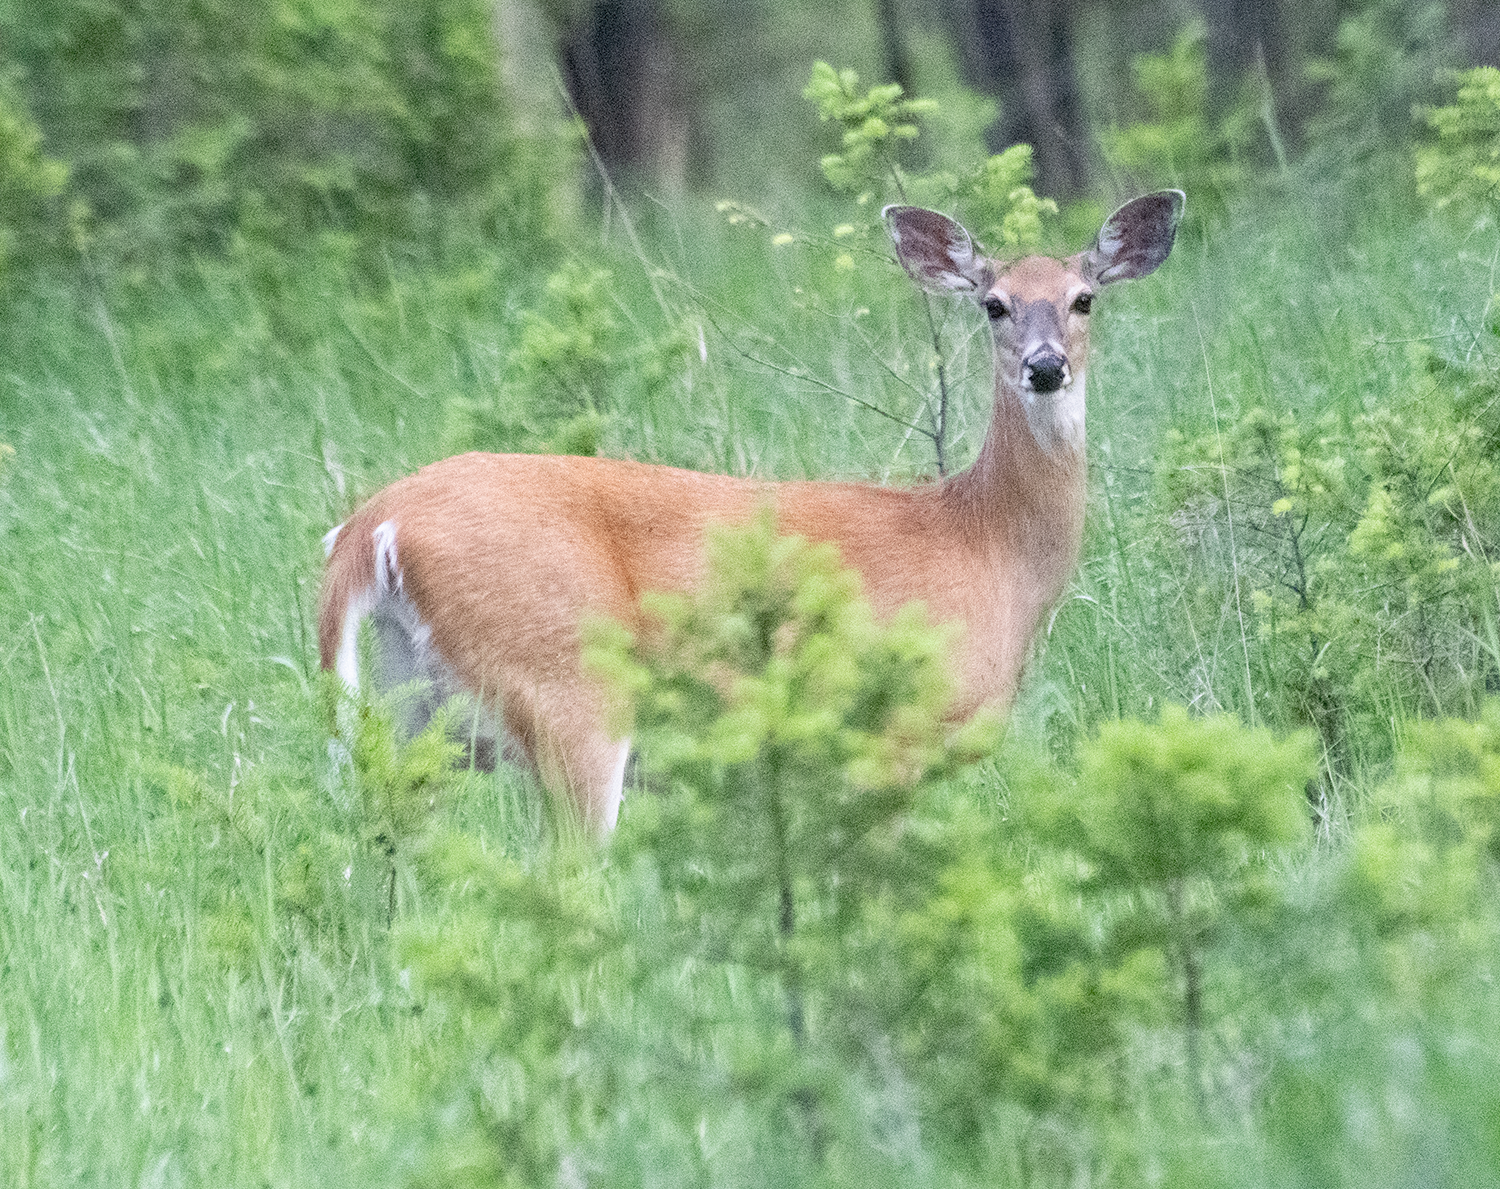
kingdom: Animalia
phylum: Chordata
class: Mammalia
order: Artiodactyla
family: Cervidae
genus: Odocoileus
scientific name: Odocoileus virginianus
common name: White-tailed deer
